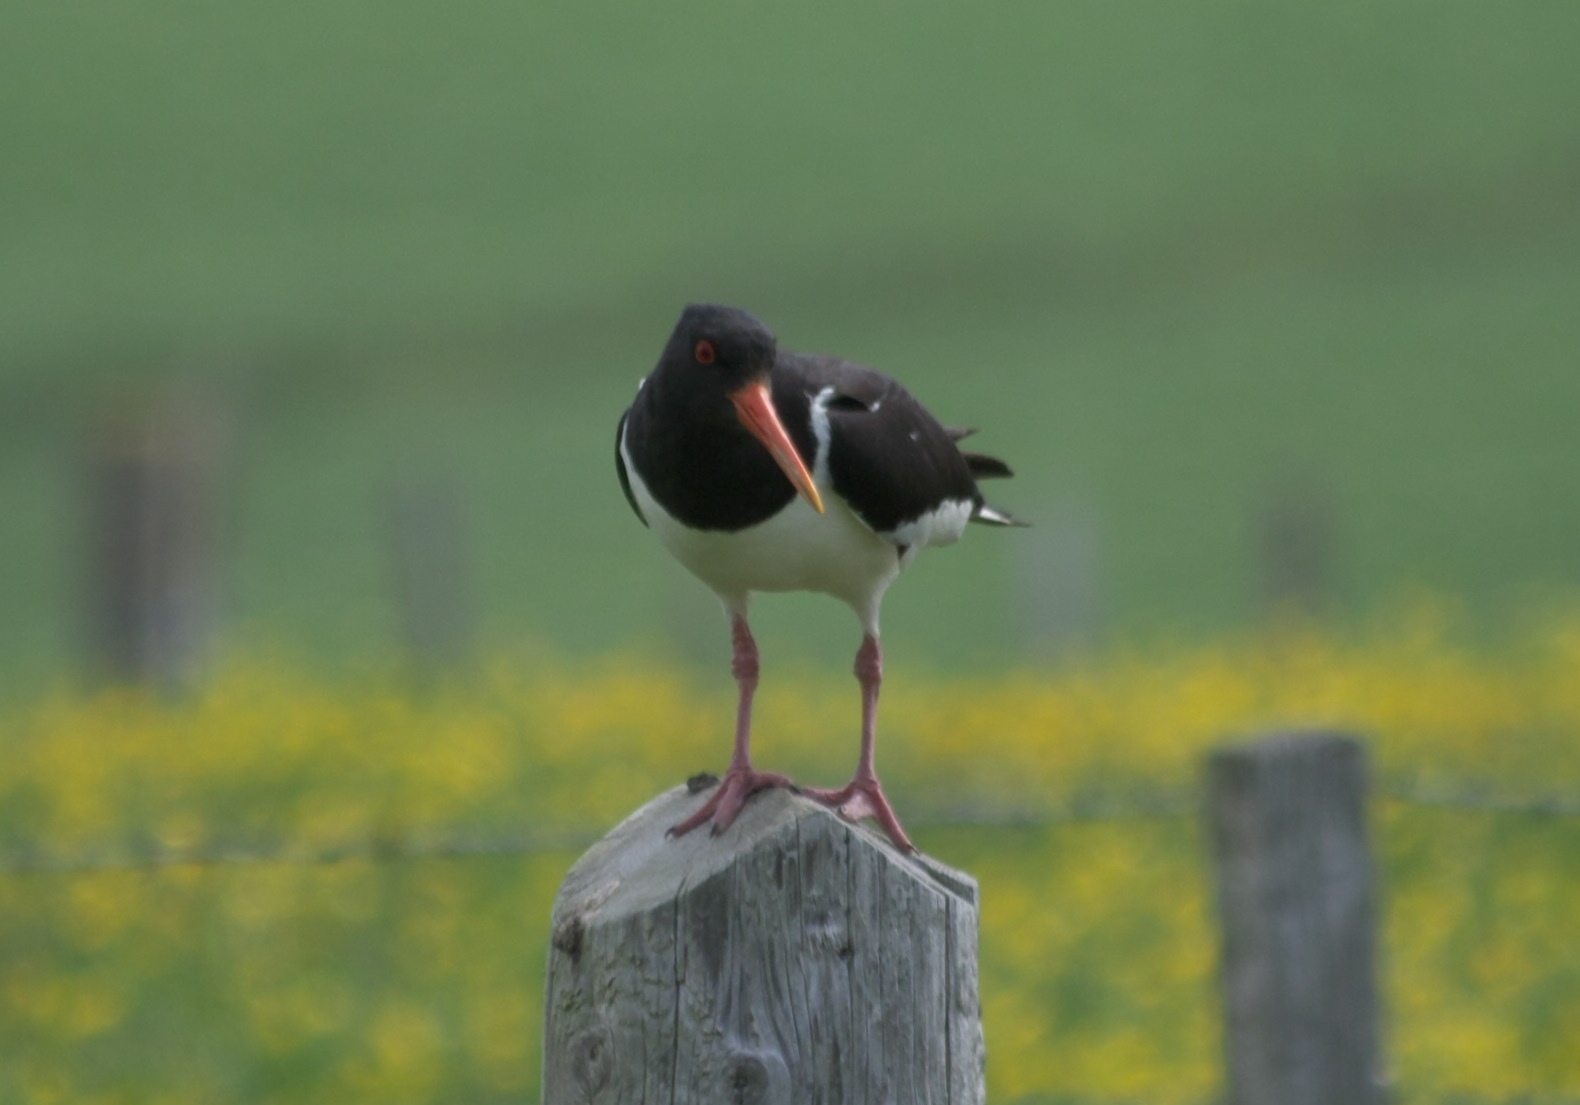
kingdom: Animalia
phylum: Chordata
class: Aves
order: Charadriiformes
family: Haematopodidae
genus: Haematopus
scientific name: Haematopus ostralegus
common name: Eurasian oystercatcher
